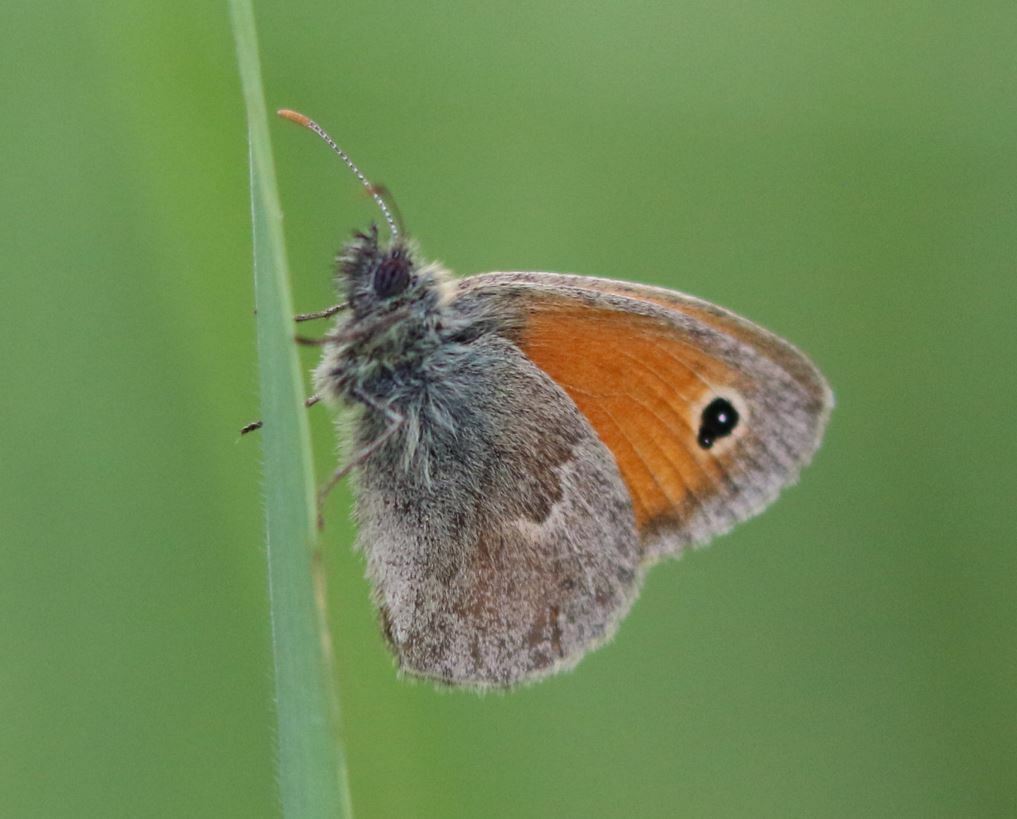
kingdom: Animalia
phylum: Arthropoda
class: Insecta
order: Lepidoptera
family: Nymphalidae
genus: Coenonympha
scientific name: Coenonympha pamphilus
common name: Small heath
